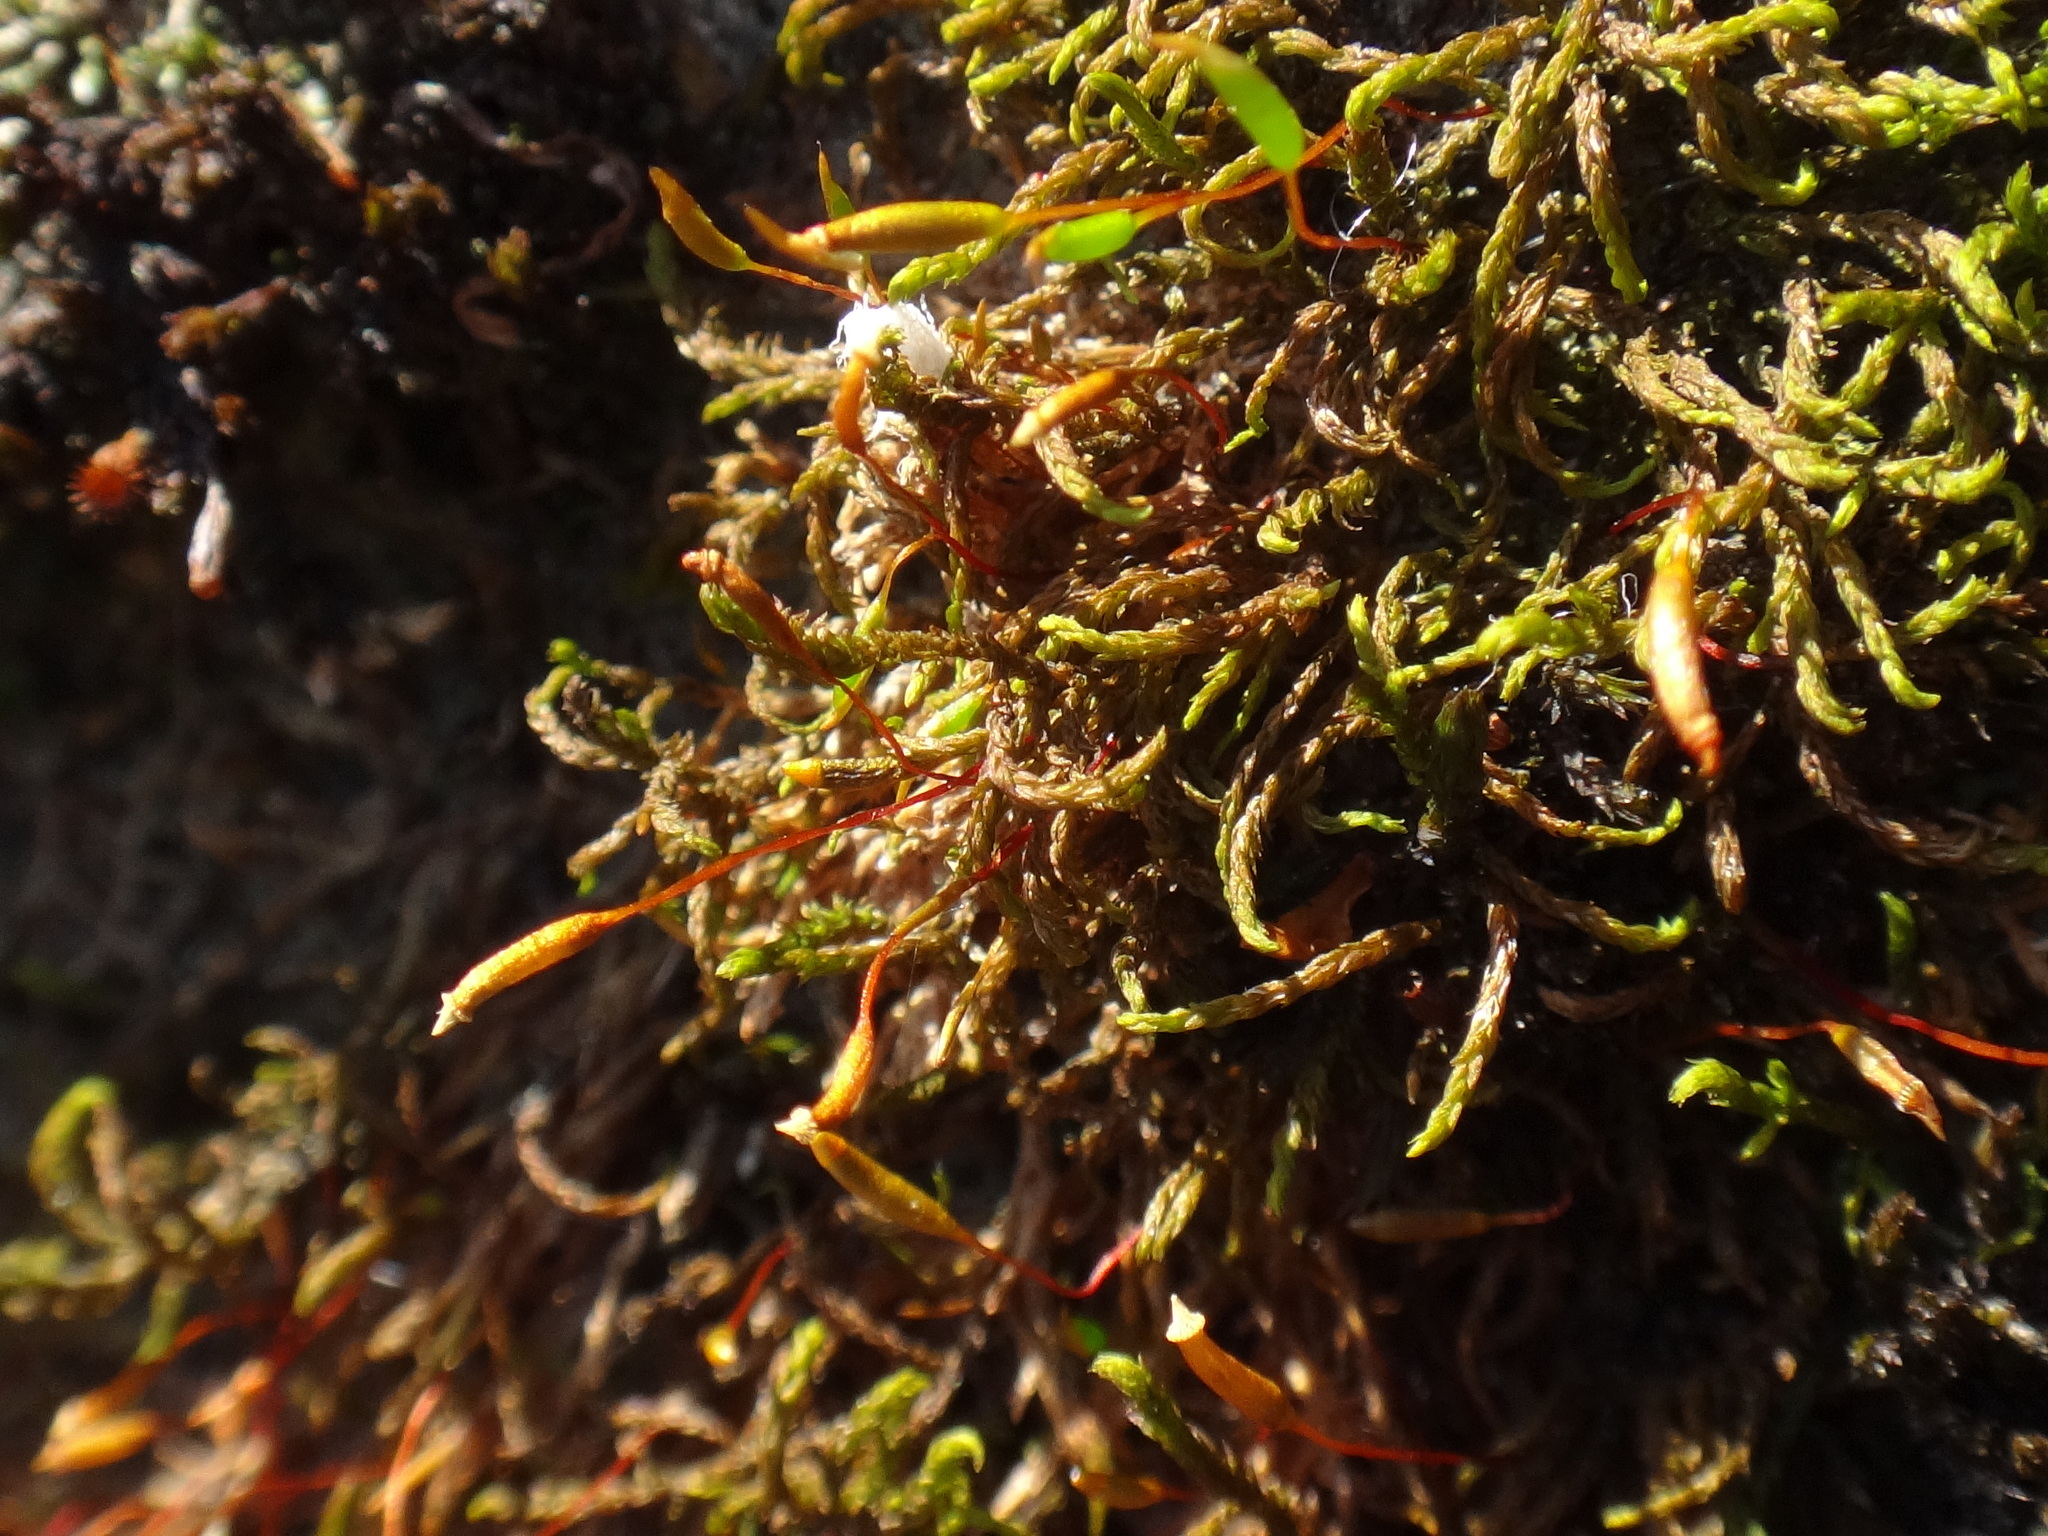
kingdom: Plantae
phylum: Bryophyta
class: Bryopsida
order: Hypnales
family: Leskeaceae
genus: Leskea
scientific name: Leskea polycarpa
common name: Many-fruited leske's moss
